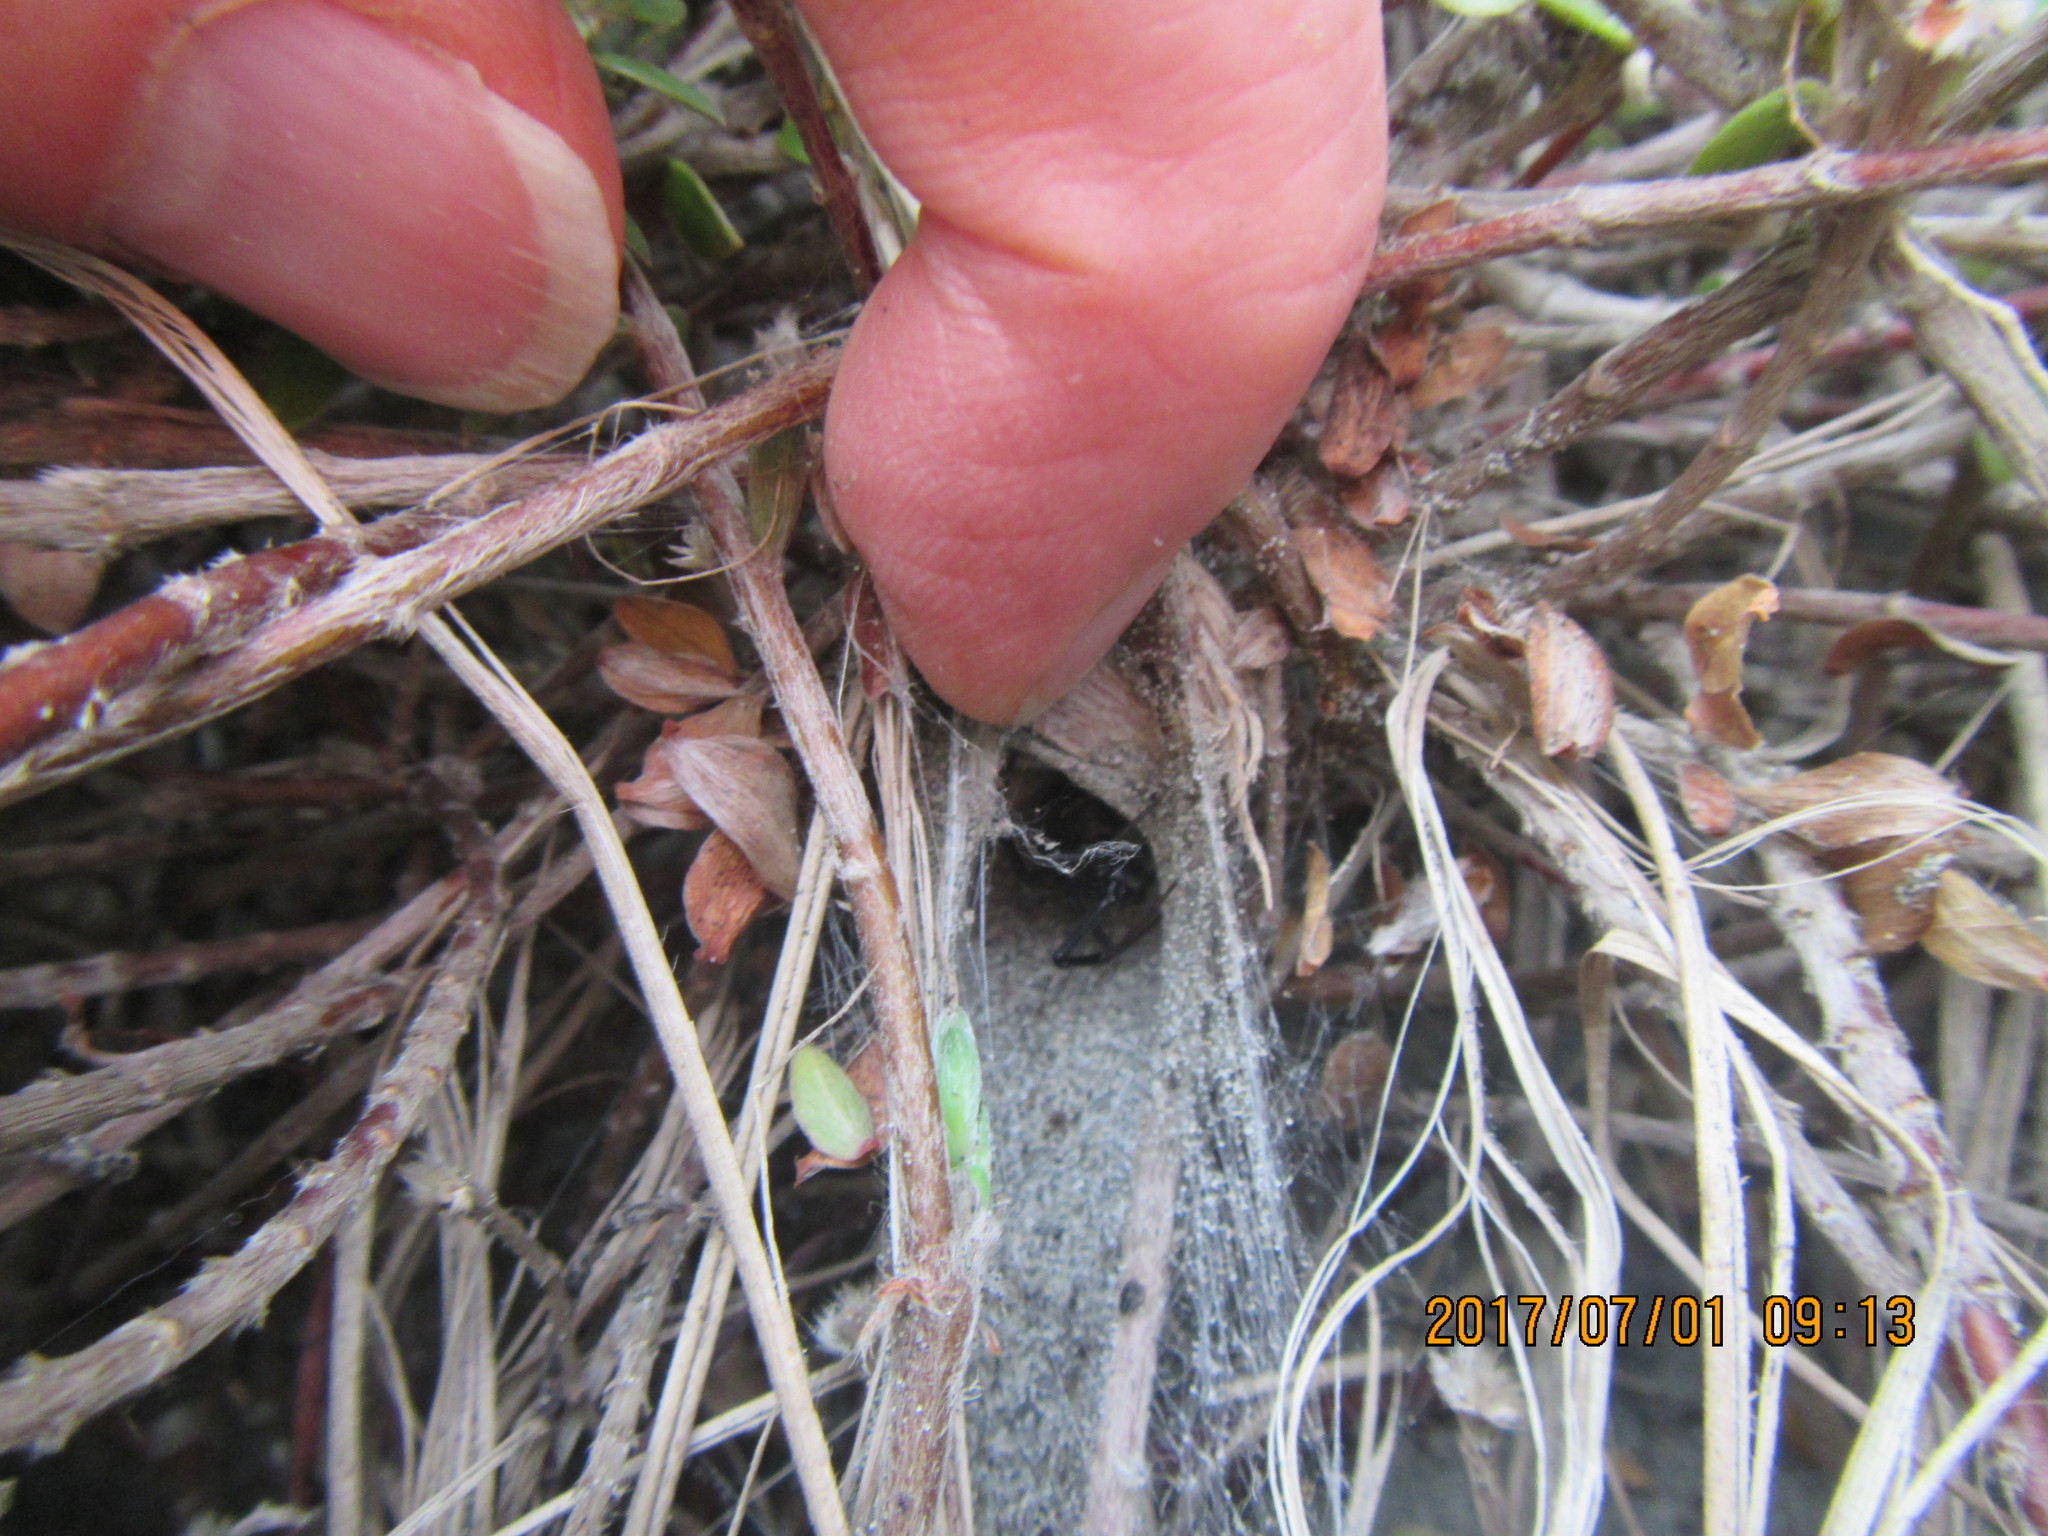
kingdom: Plantae
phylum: Tracheophyta
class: Magnoliopsida
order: Malvales
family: Thymelaeaceae
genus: Pimelea
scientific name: Pimelea villosa
